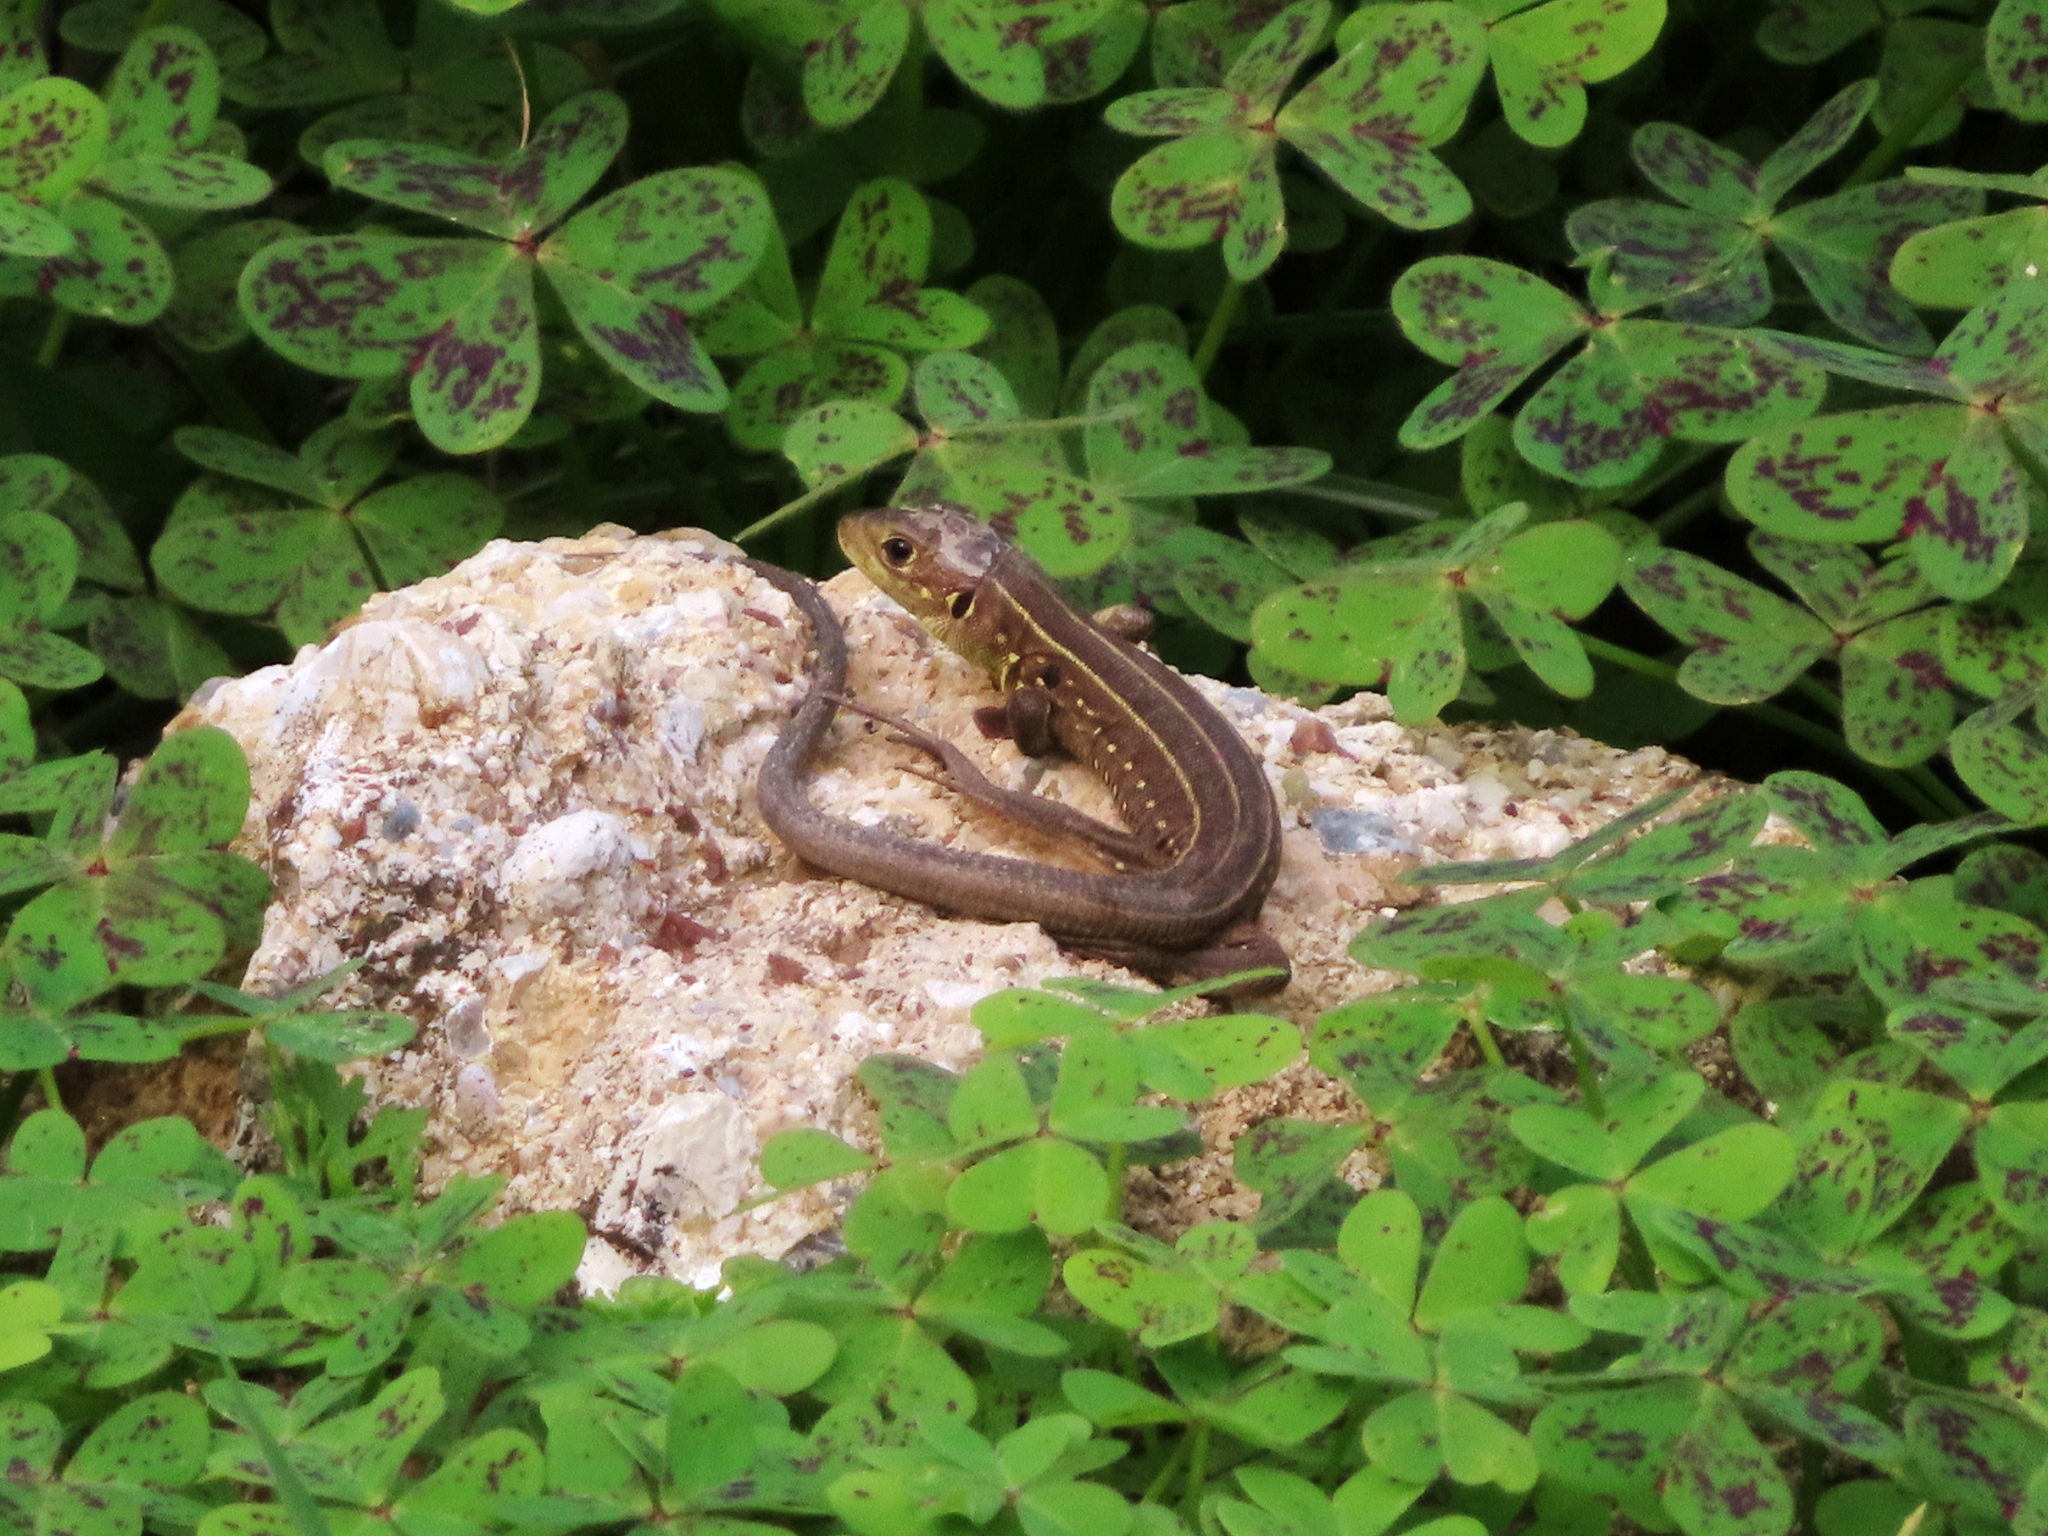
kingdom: Animalia
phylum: Chordata
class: Squamata
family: Lacertidae
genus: Lacerta
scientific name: Lacerta trilineata
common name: Balkan green lizard
